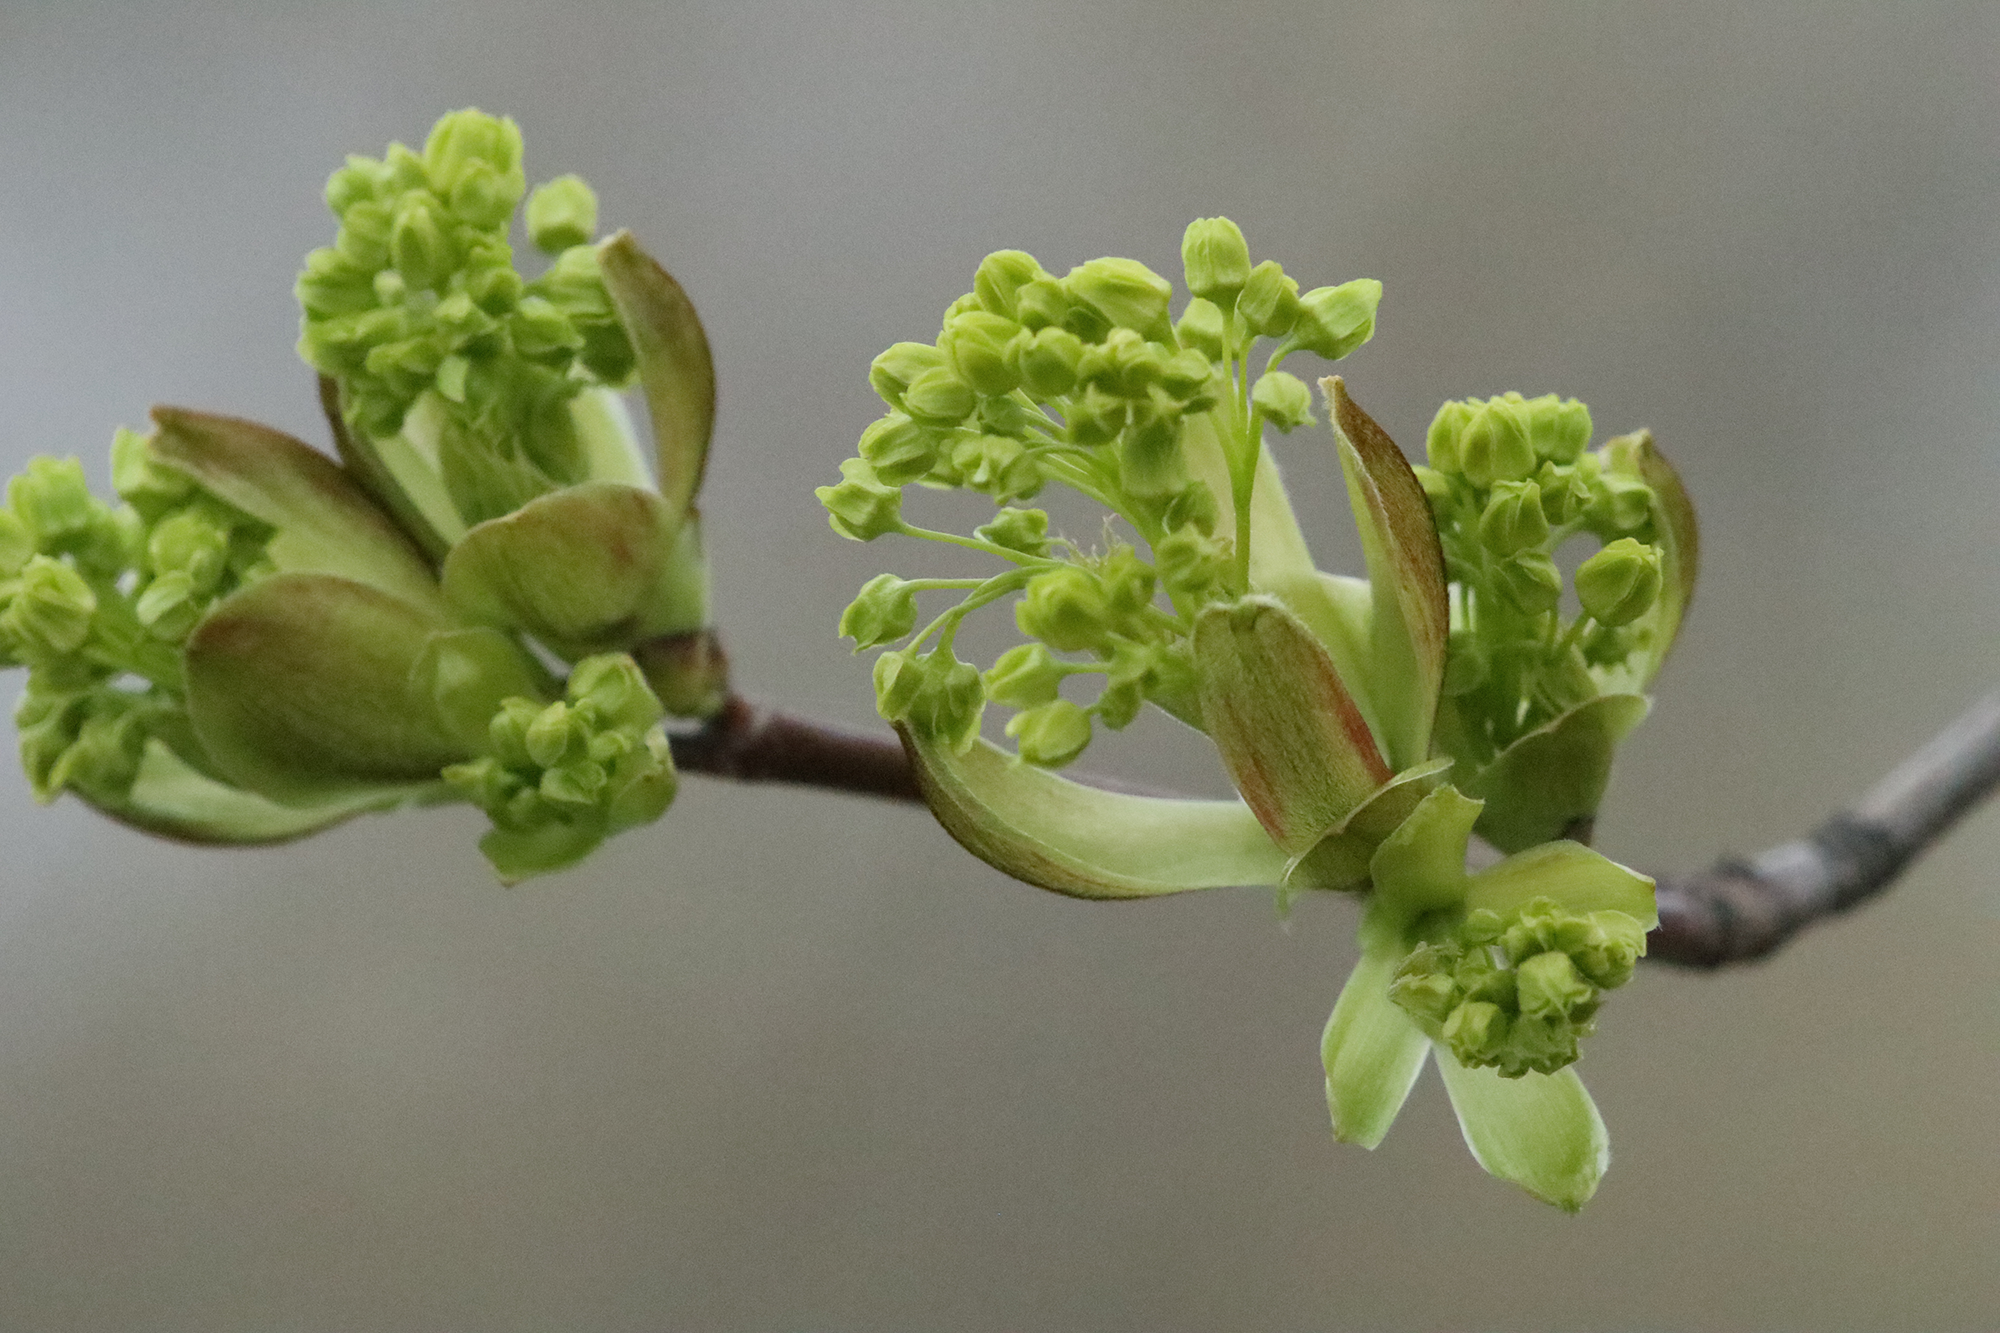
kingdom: Plantae
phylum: Tracheophyta
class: Magnoliopsida
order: Sapindales
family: Sapindaceae
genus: Acer
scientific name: Acer platanoides
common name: Norway maple
